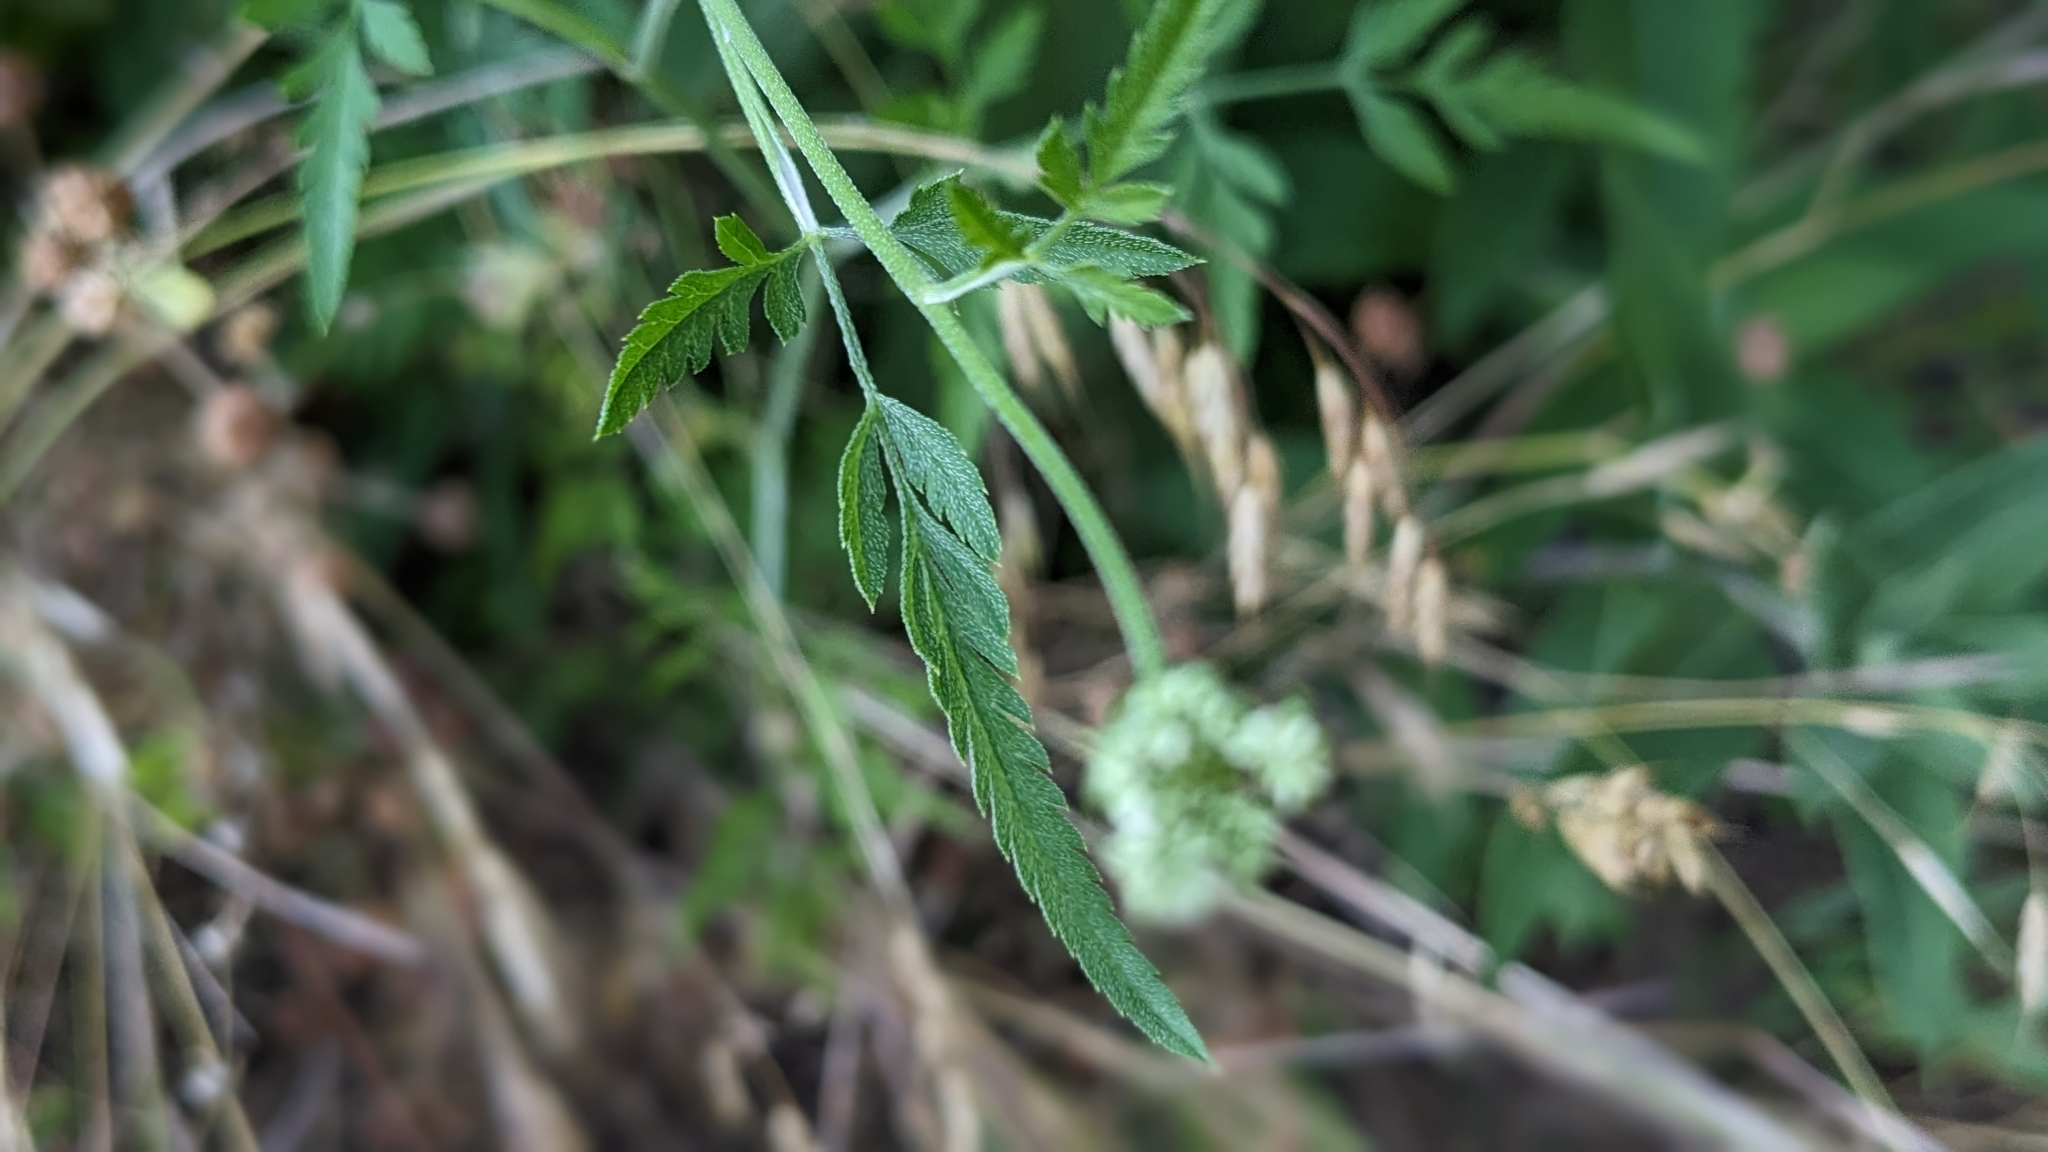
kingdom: Plantae
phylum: Tracheophyta
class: Magnoliopsida
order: Apiales
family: Apiaceae
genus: Torilis
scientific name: Torilis japonica
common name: Upright hedge-parsley
